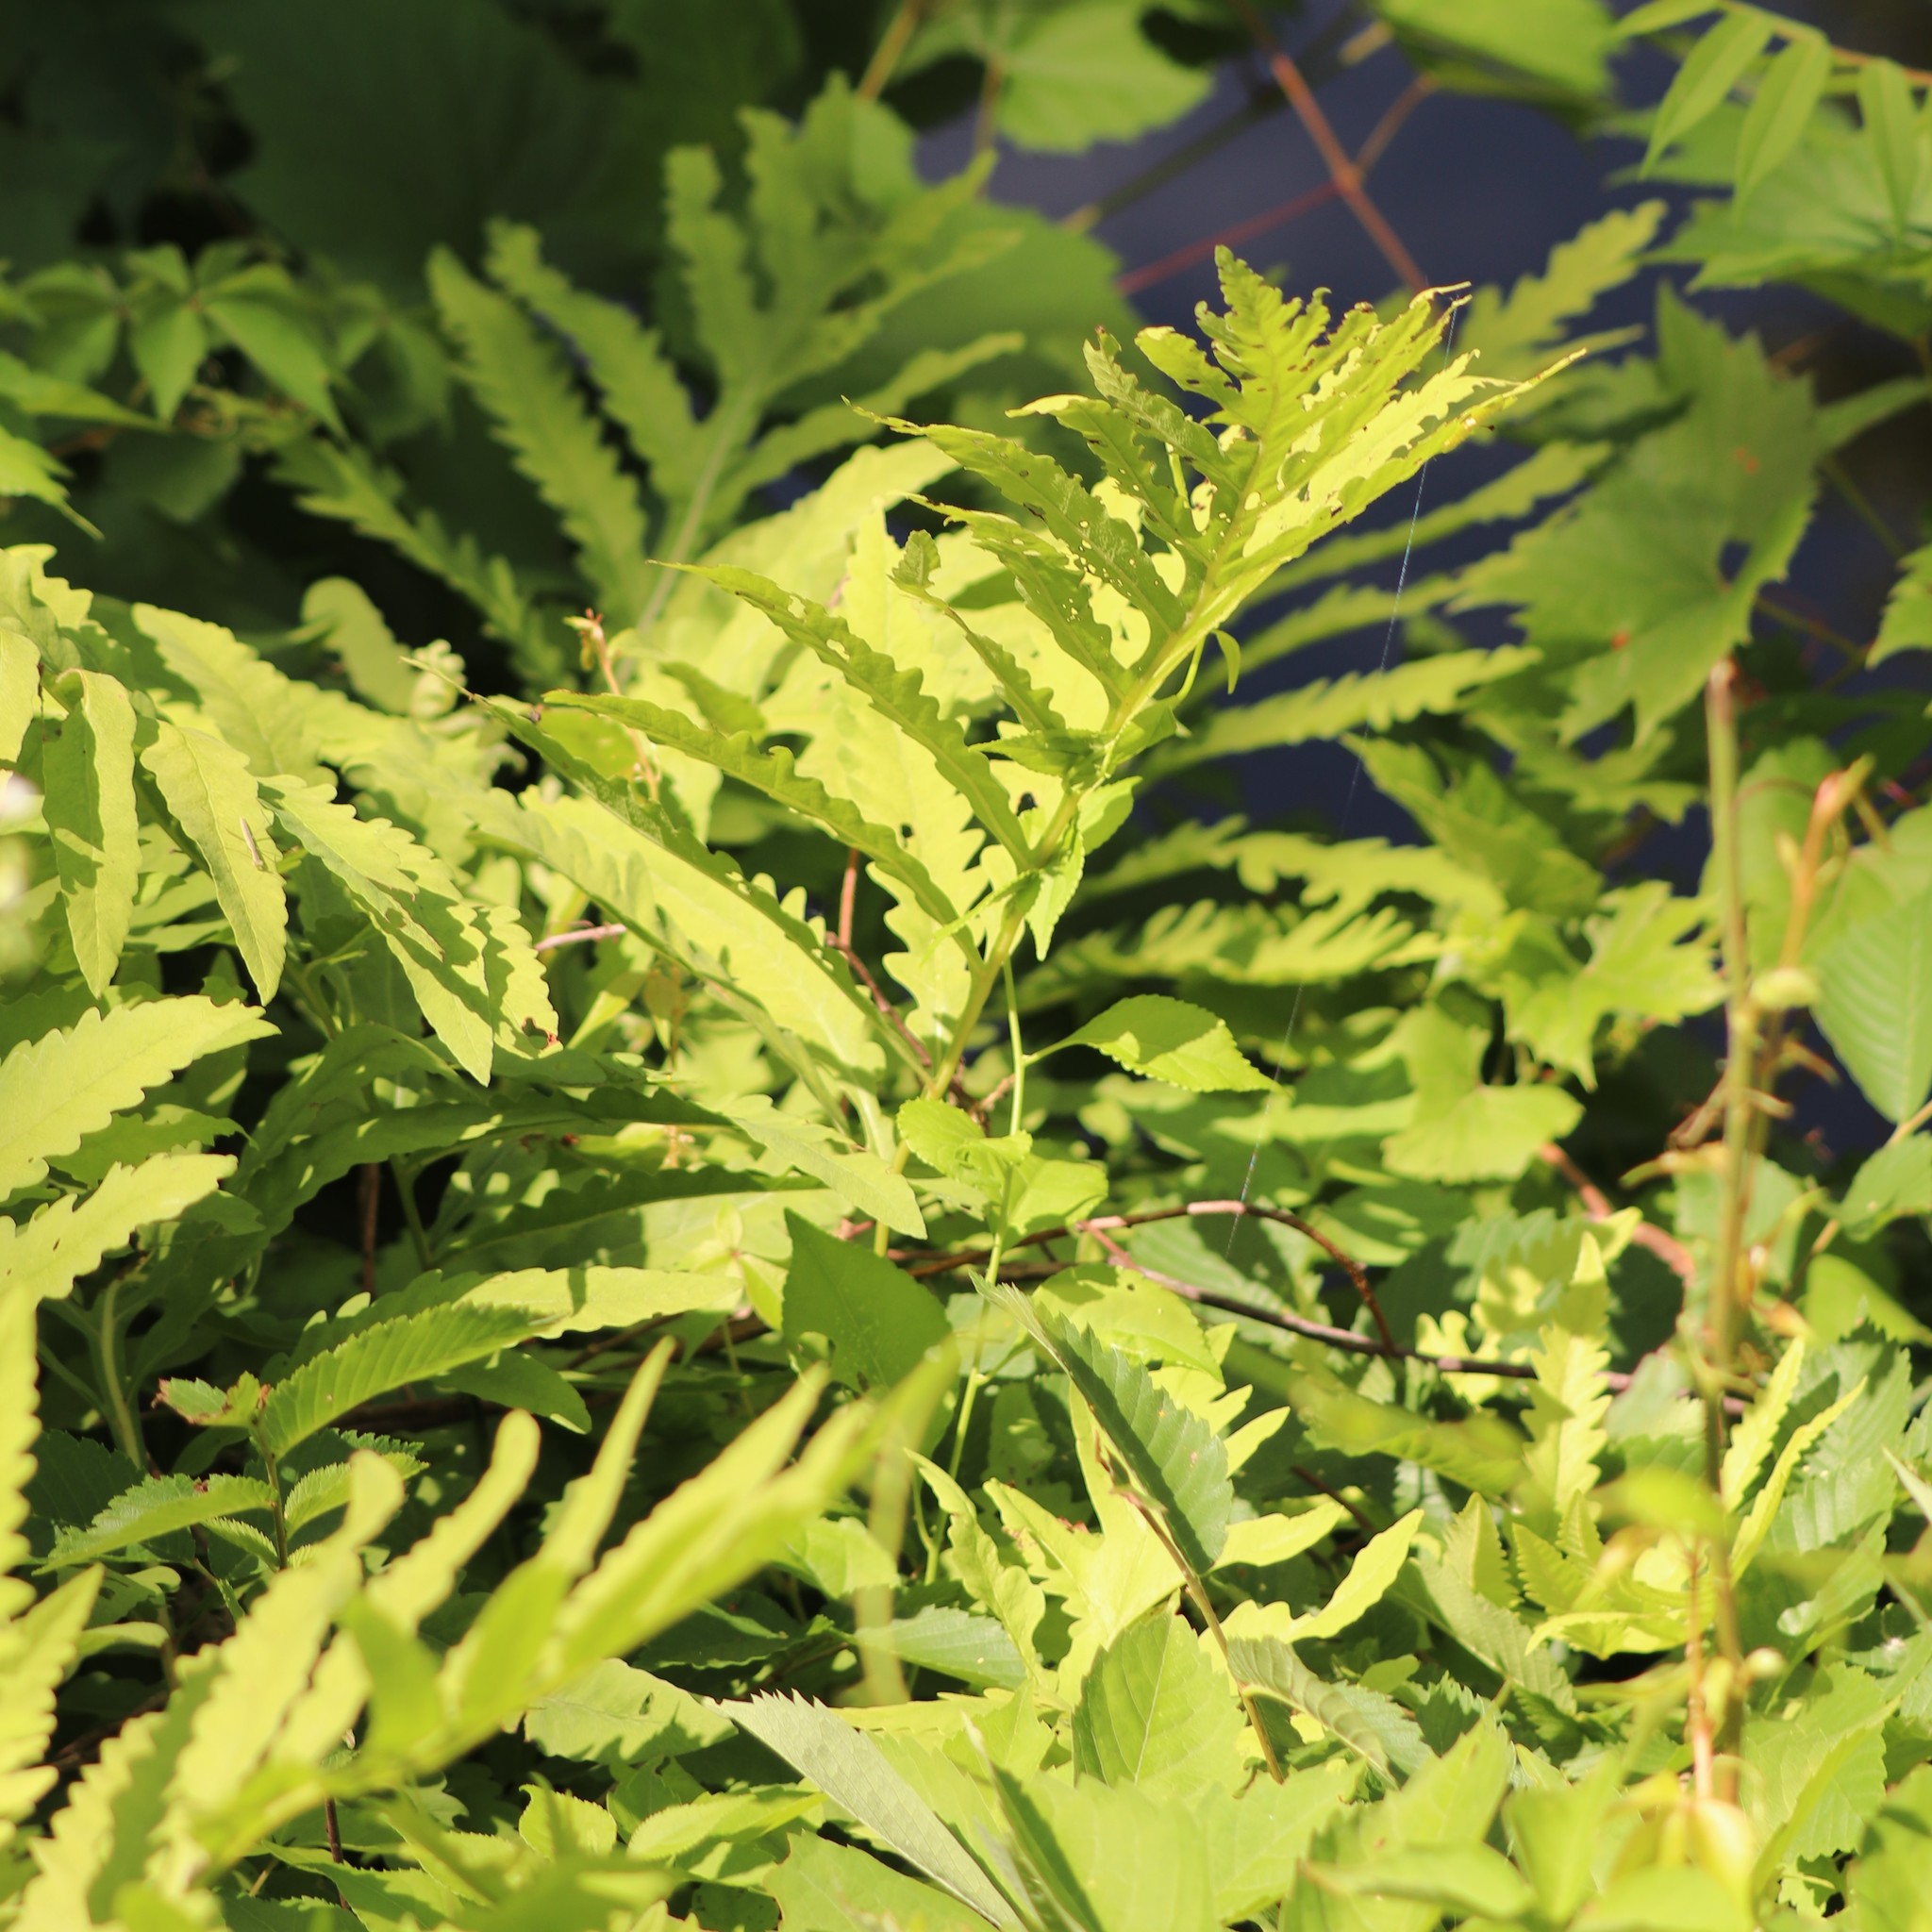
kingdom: Plantae
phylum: Tracheophyta
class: Polypodiopsida
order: Polypodiales
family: Onocleaceae
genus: Onoclea
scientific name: Onoclea sensibilis
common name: Sensitive fern
